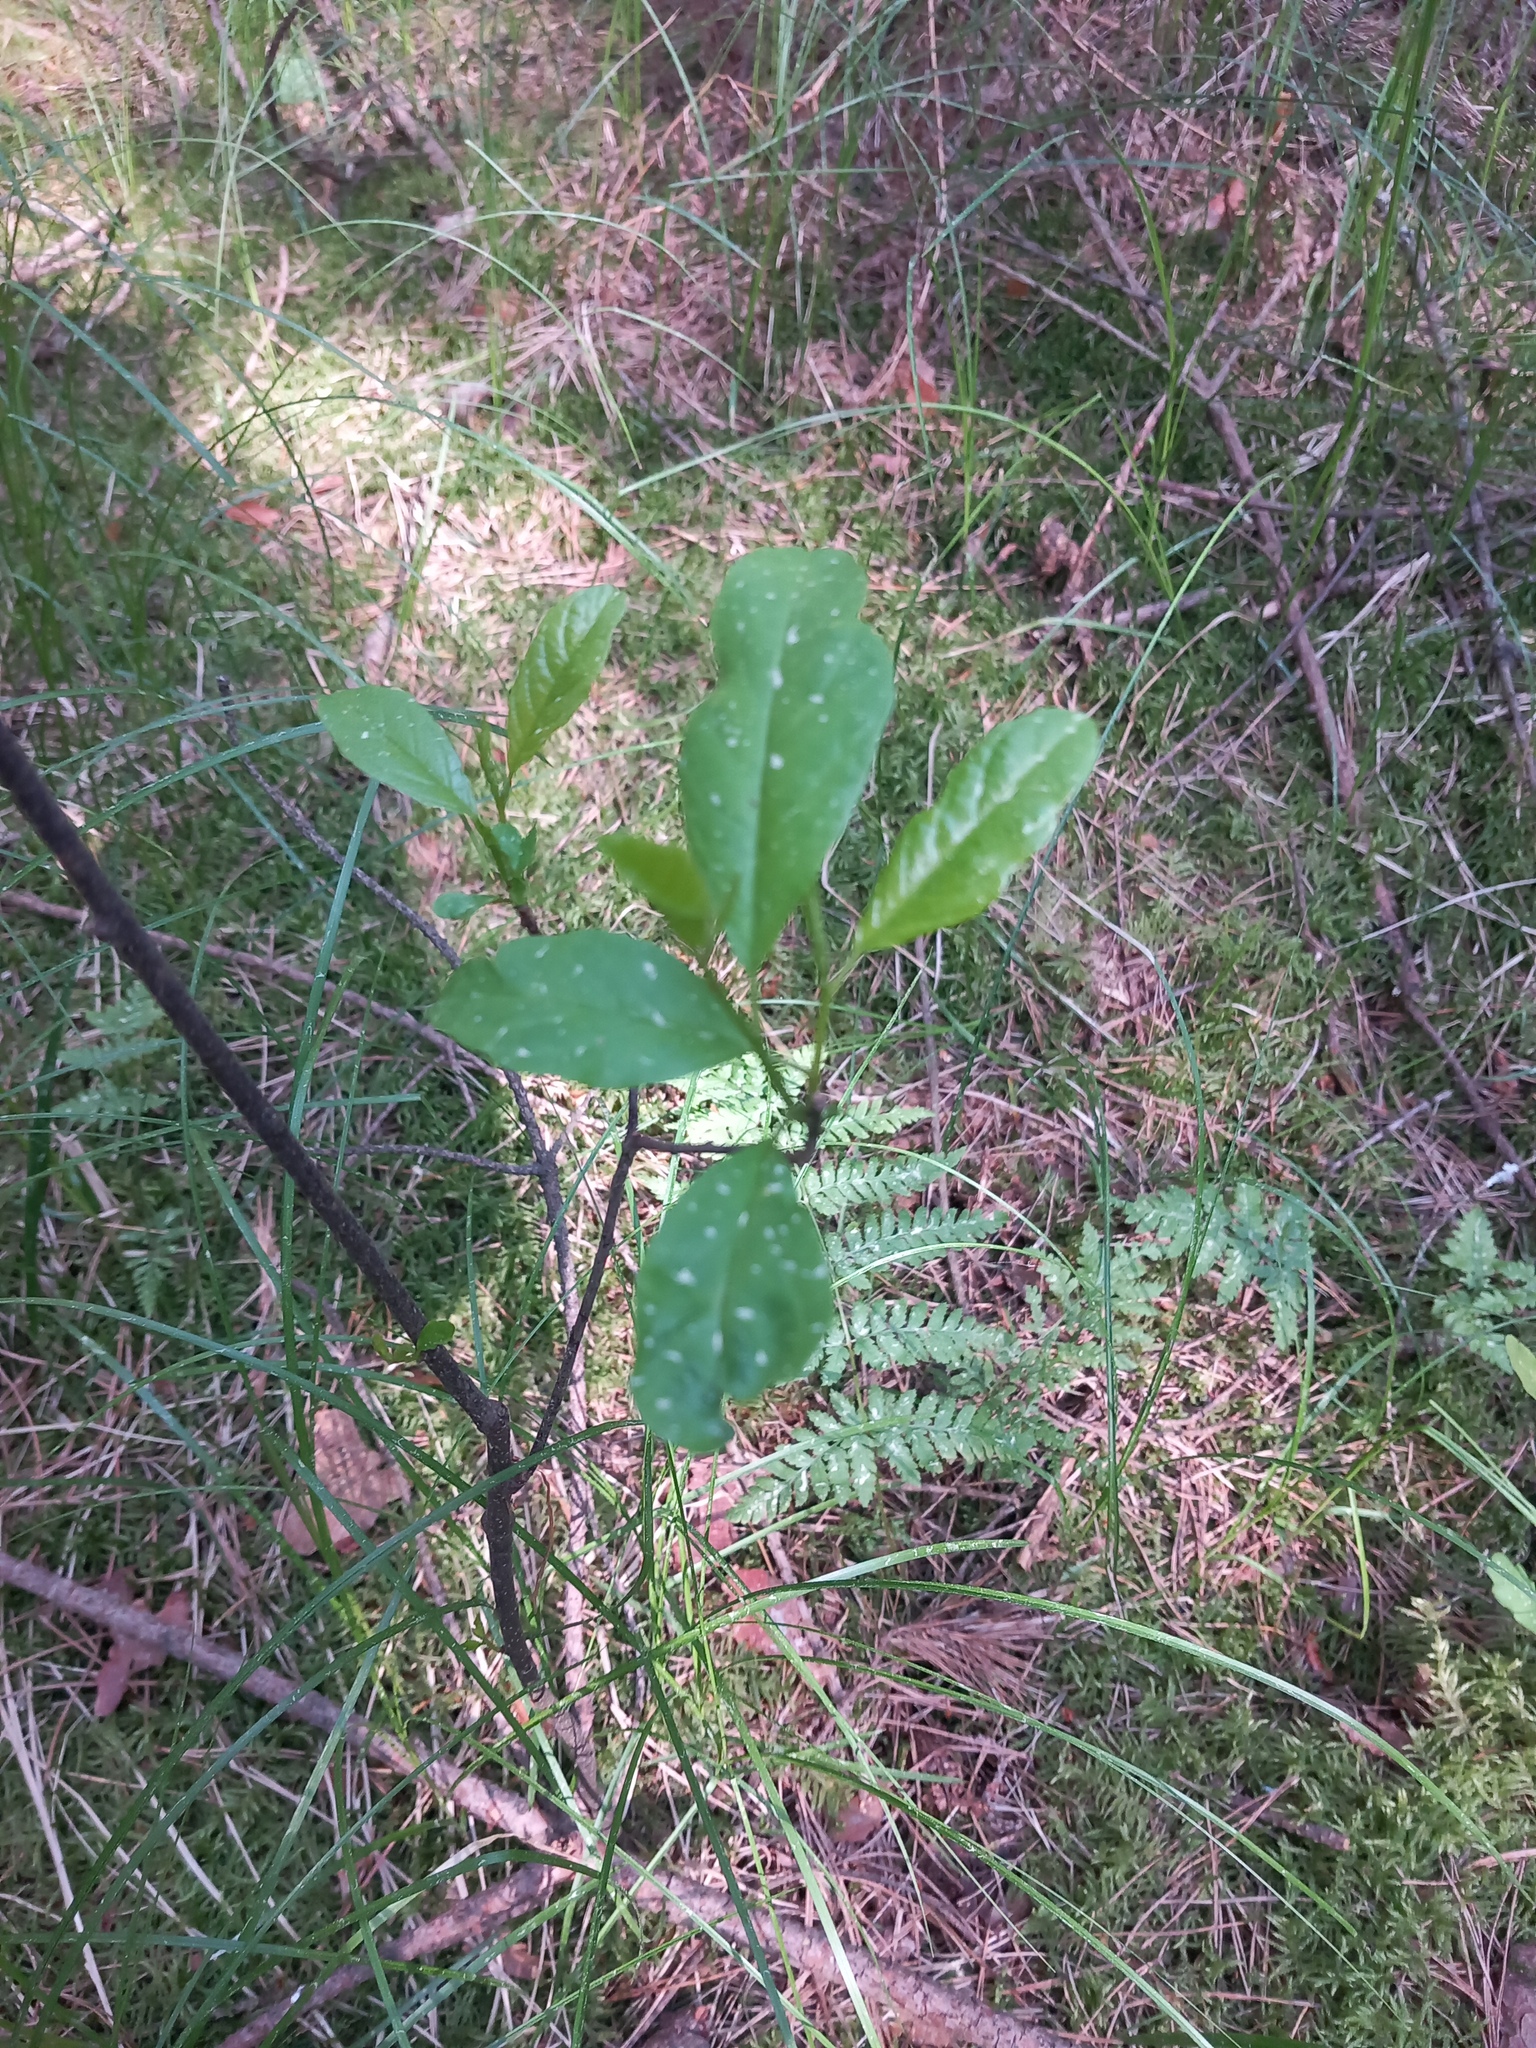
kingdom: Plantae
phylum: Tracheophyta
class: Magnoliopsida
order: Rosales
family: Rhamnaceae
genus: Frangula
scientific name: Frangula alnus
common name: Alder buckthorn
